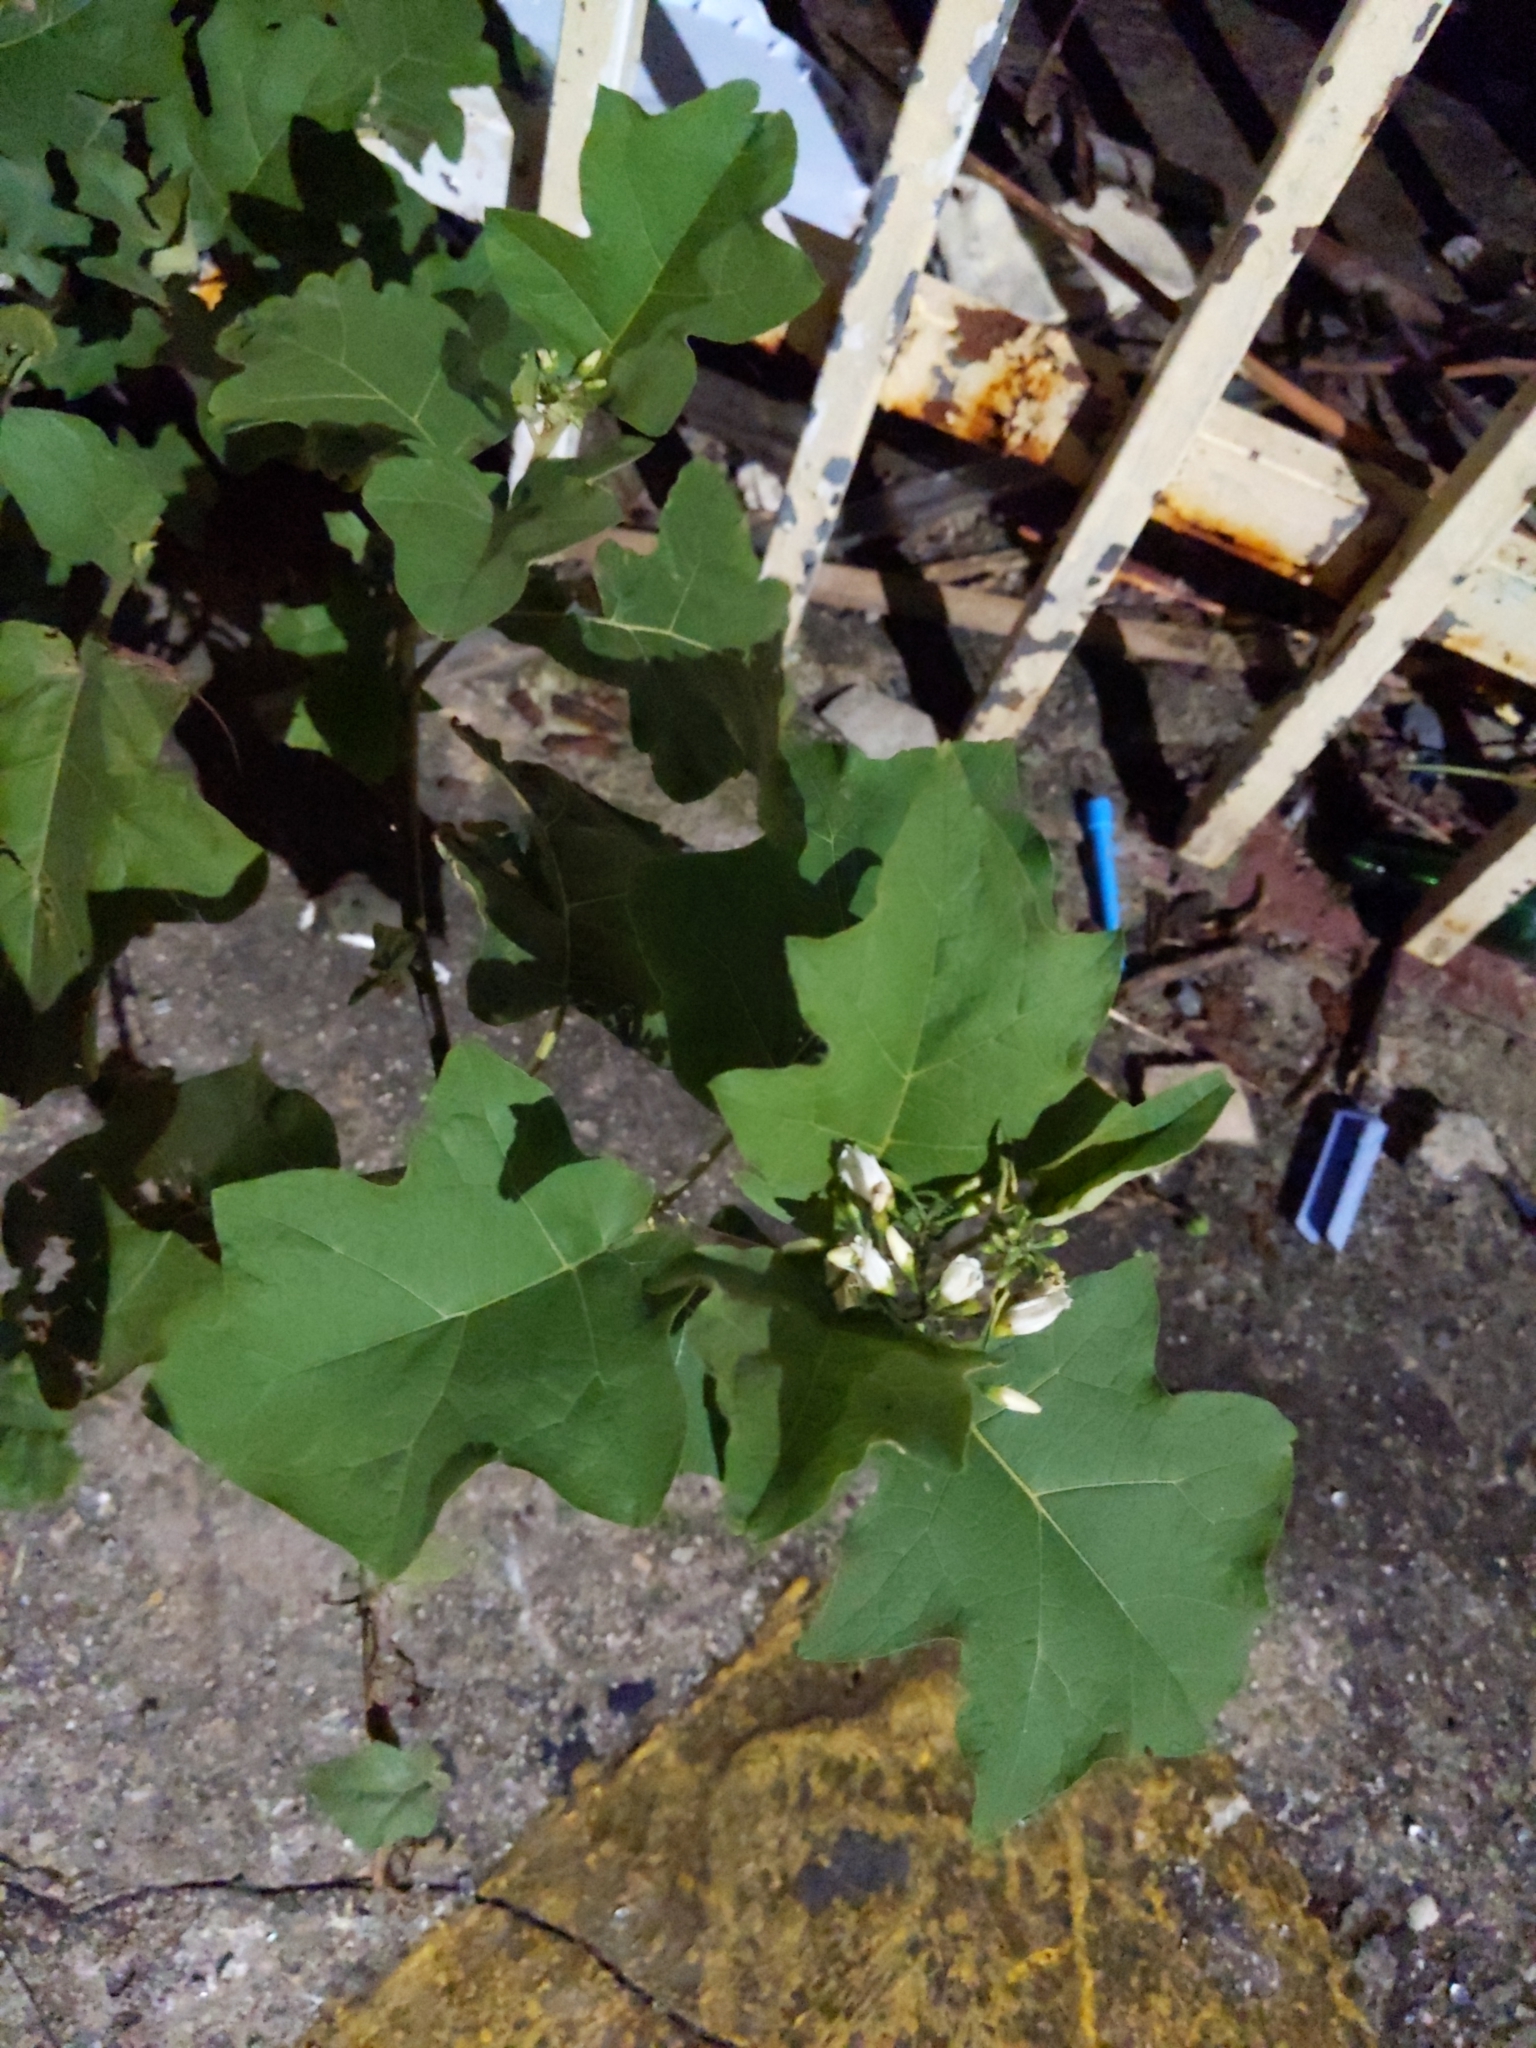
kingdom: Plantae
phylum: Tracheophyta
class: Magnoliopsida
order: Solanales
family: Solanaceae
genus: Solanum
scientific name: Solanum torvum
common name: Turkey berry
